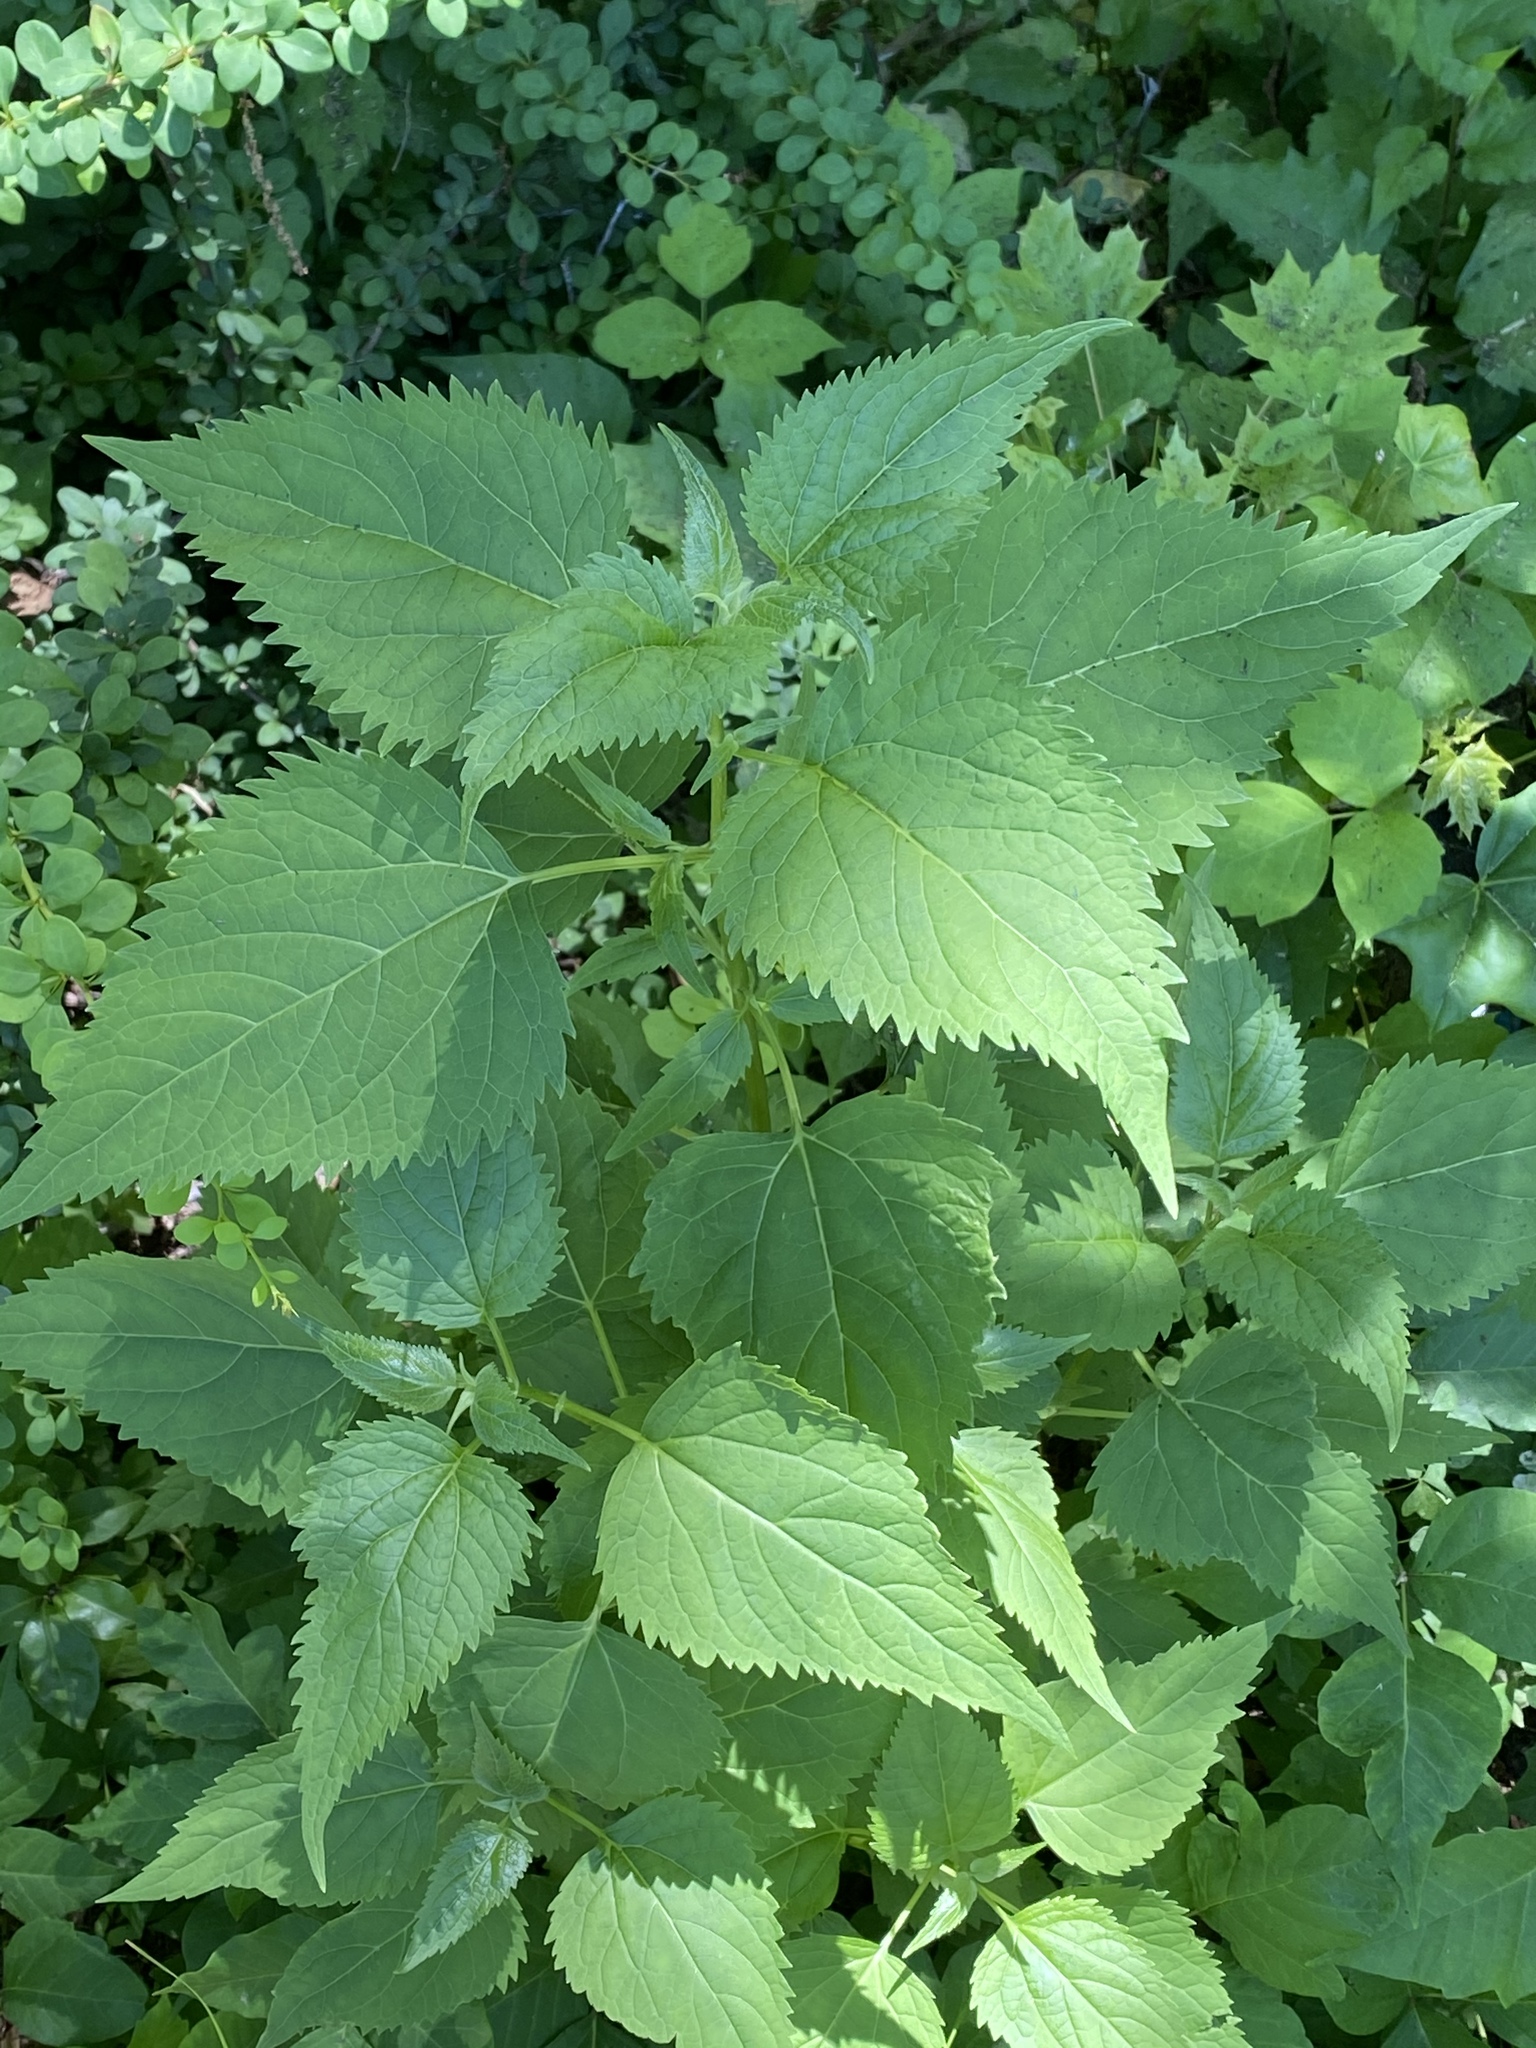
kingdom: Plantae
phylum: Tracheophyta
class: Magnoliopsida
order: Asterales
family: Asteraceae
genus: Ageratina
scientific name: Ageratina altissima
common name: White snakeroot
